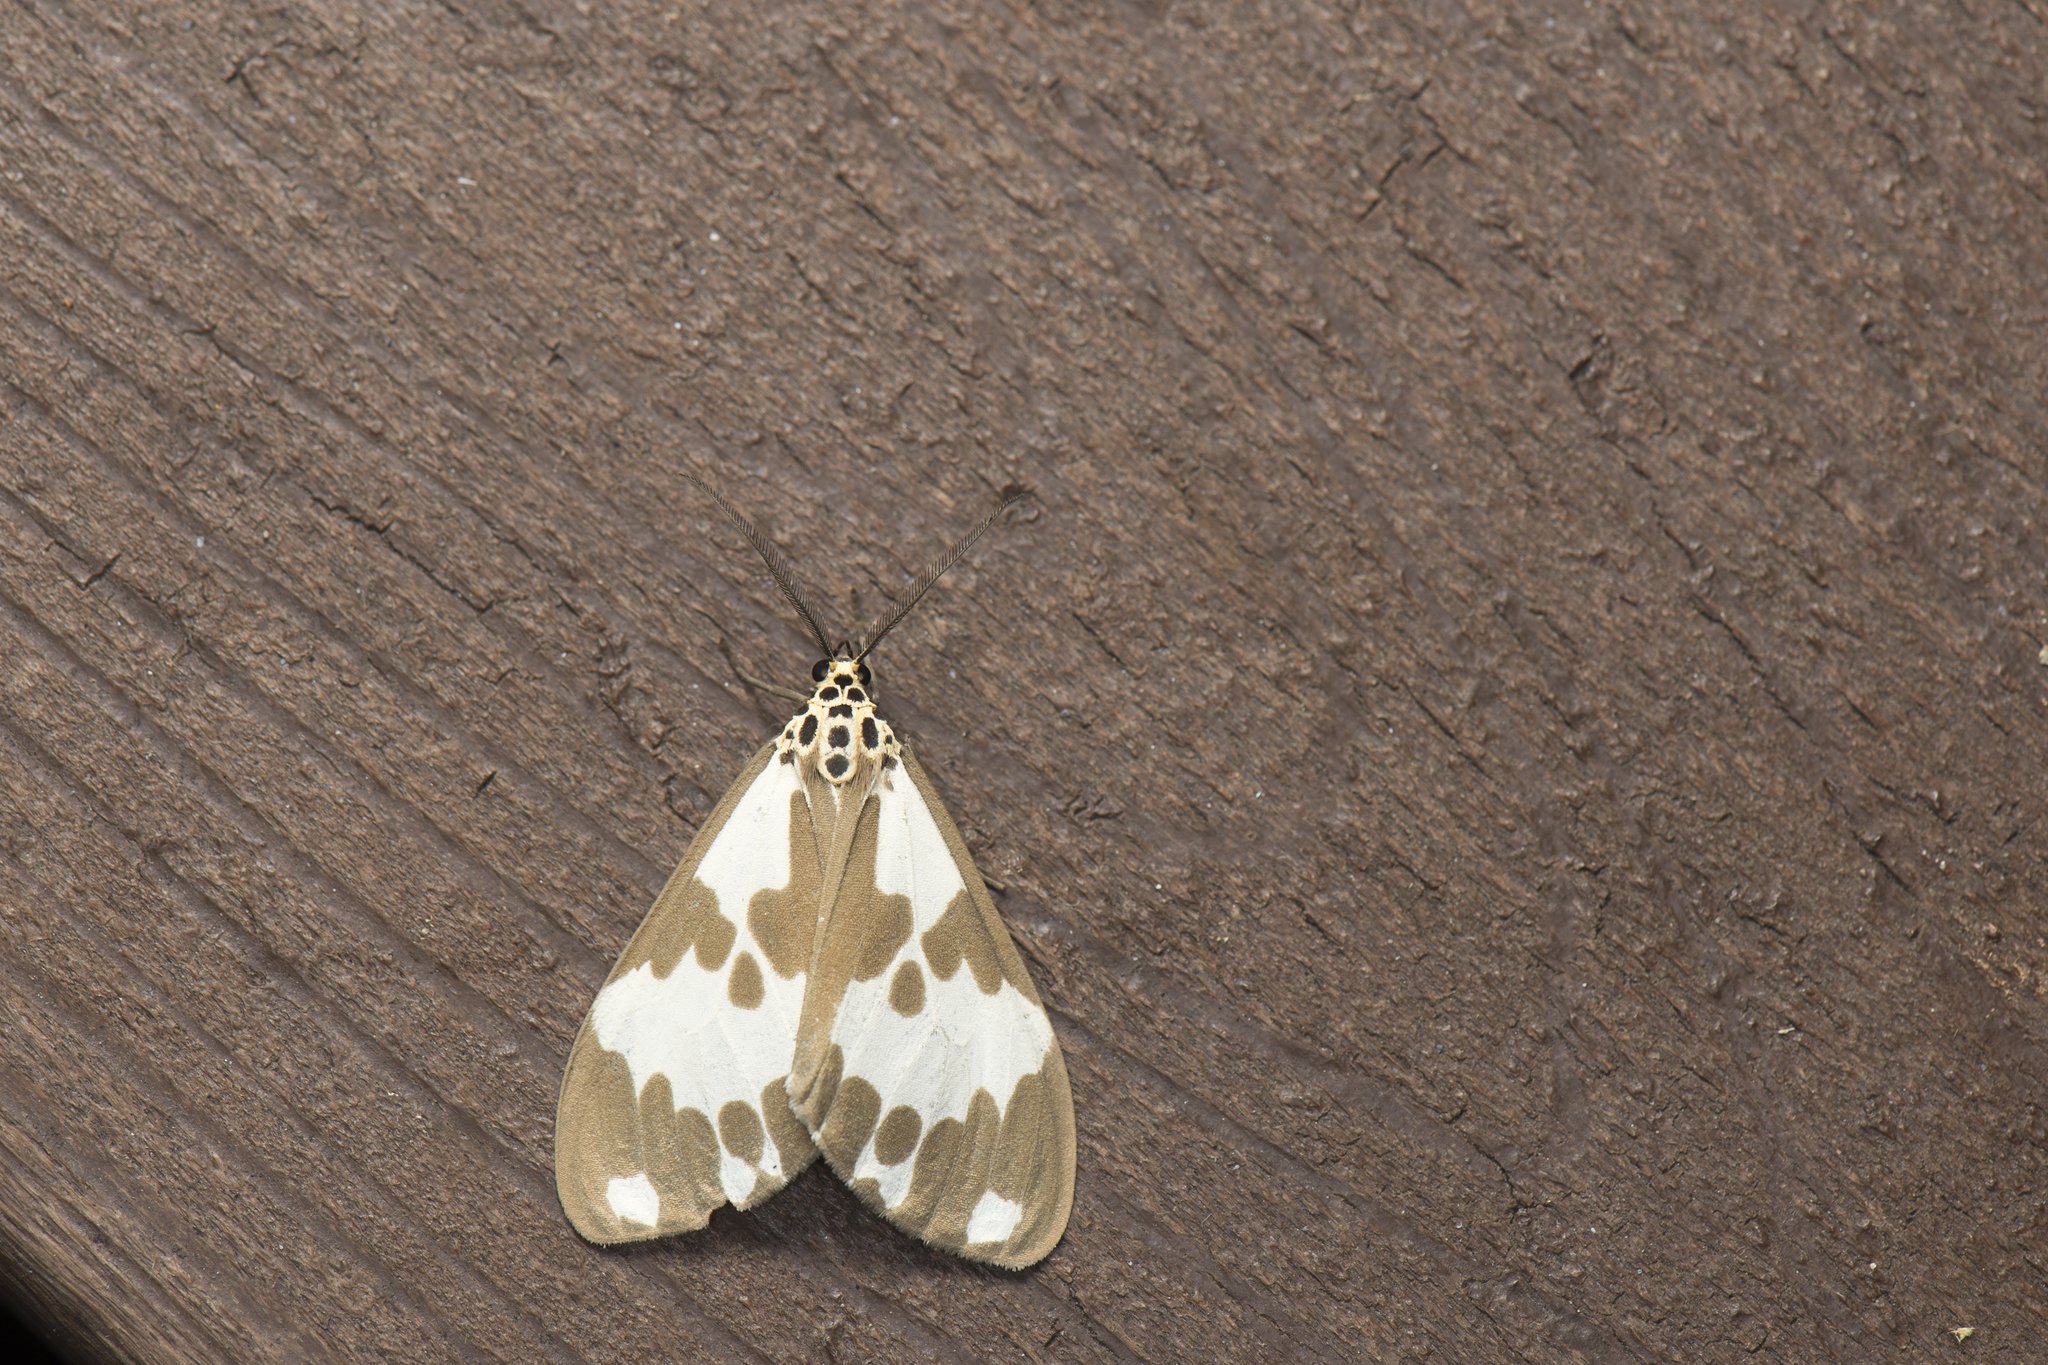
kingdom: Animalia
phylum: Arthropoda
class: Insecta
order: Lepidoptera
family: Erebidae
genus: Nyctemera
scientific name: Nyctemera carissima
